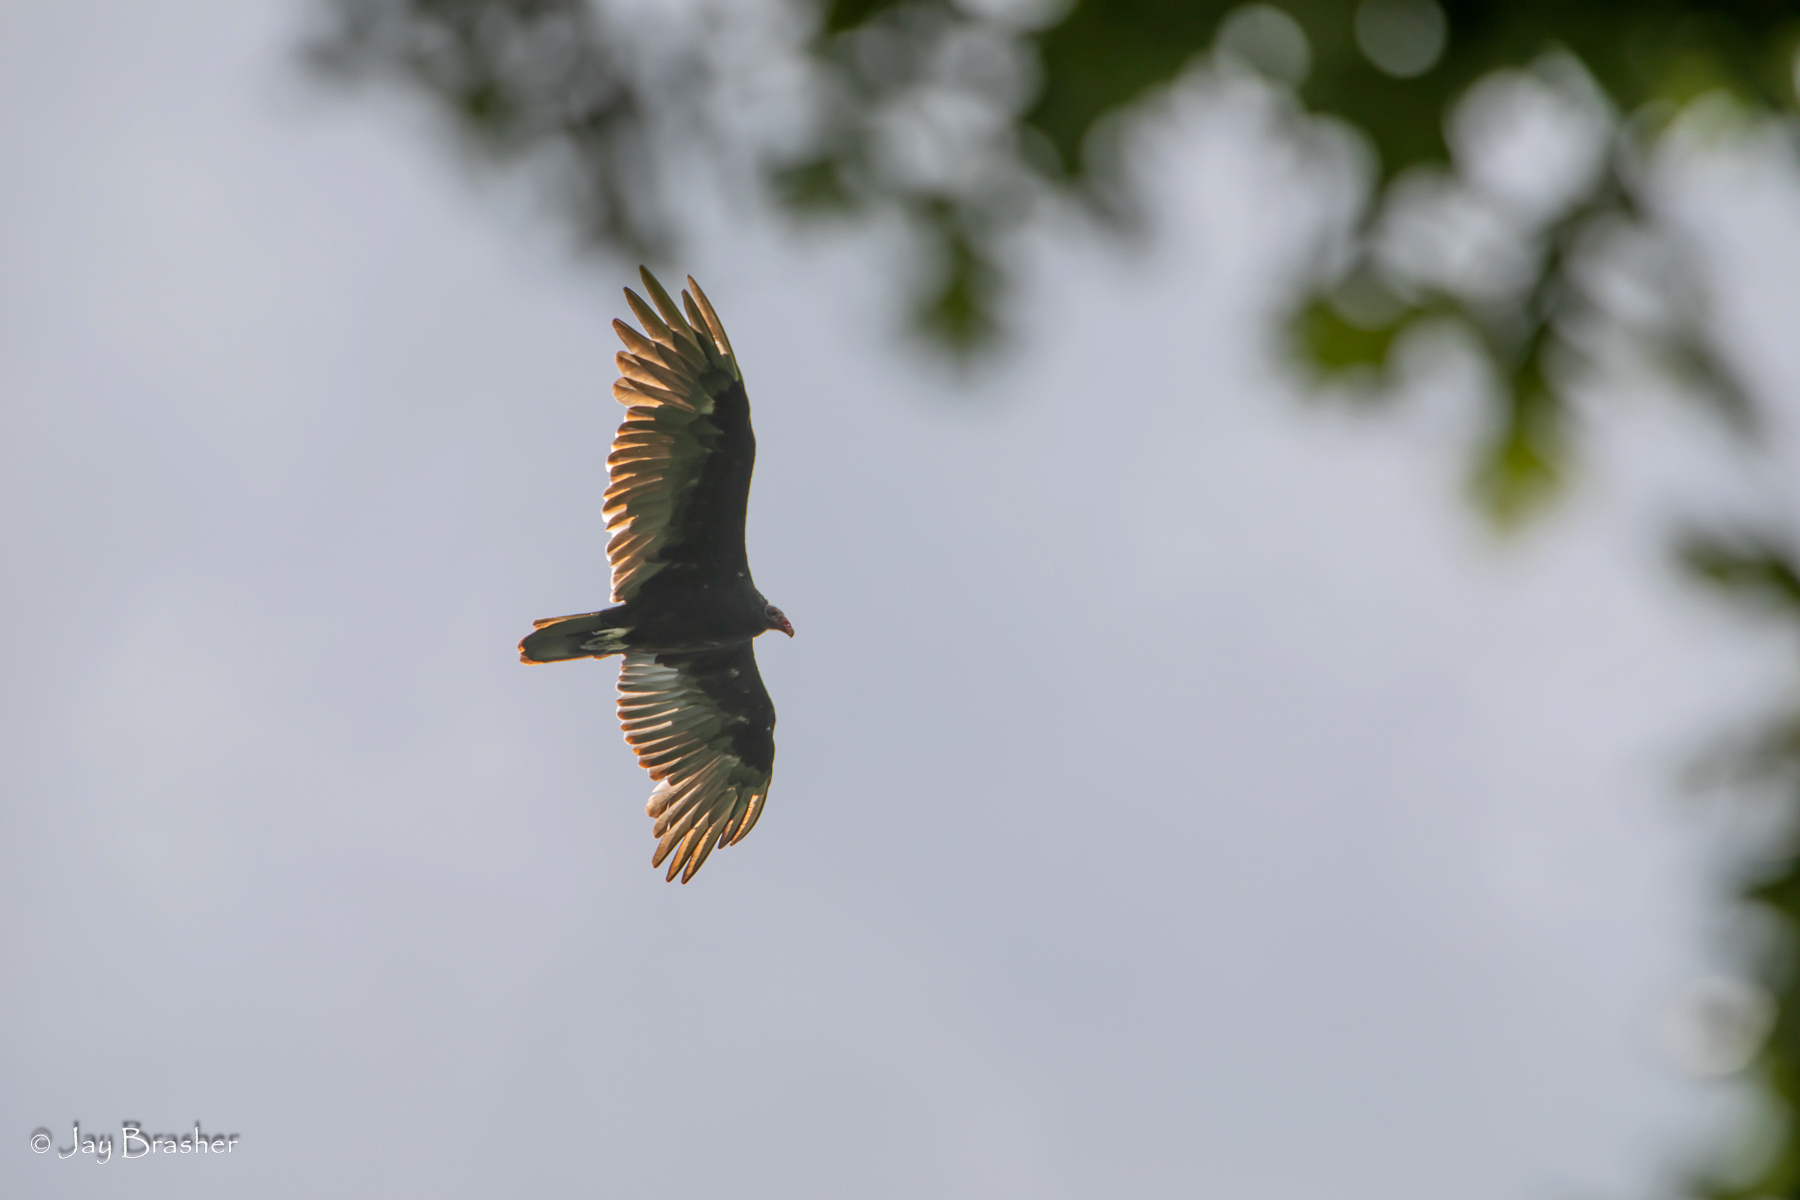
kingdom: Animalia
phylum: Chordata
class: Aves
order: Accipitriformes
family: Cathartidae
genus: Cathartes
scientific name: Cathartes aura
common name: Turkey vulture
